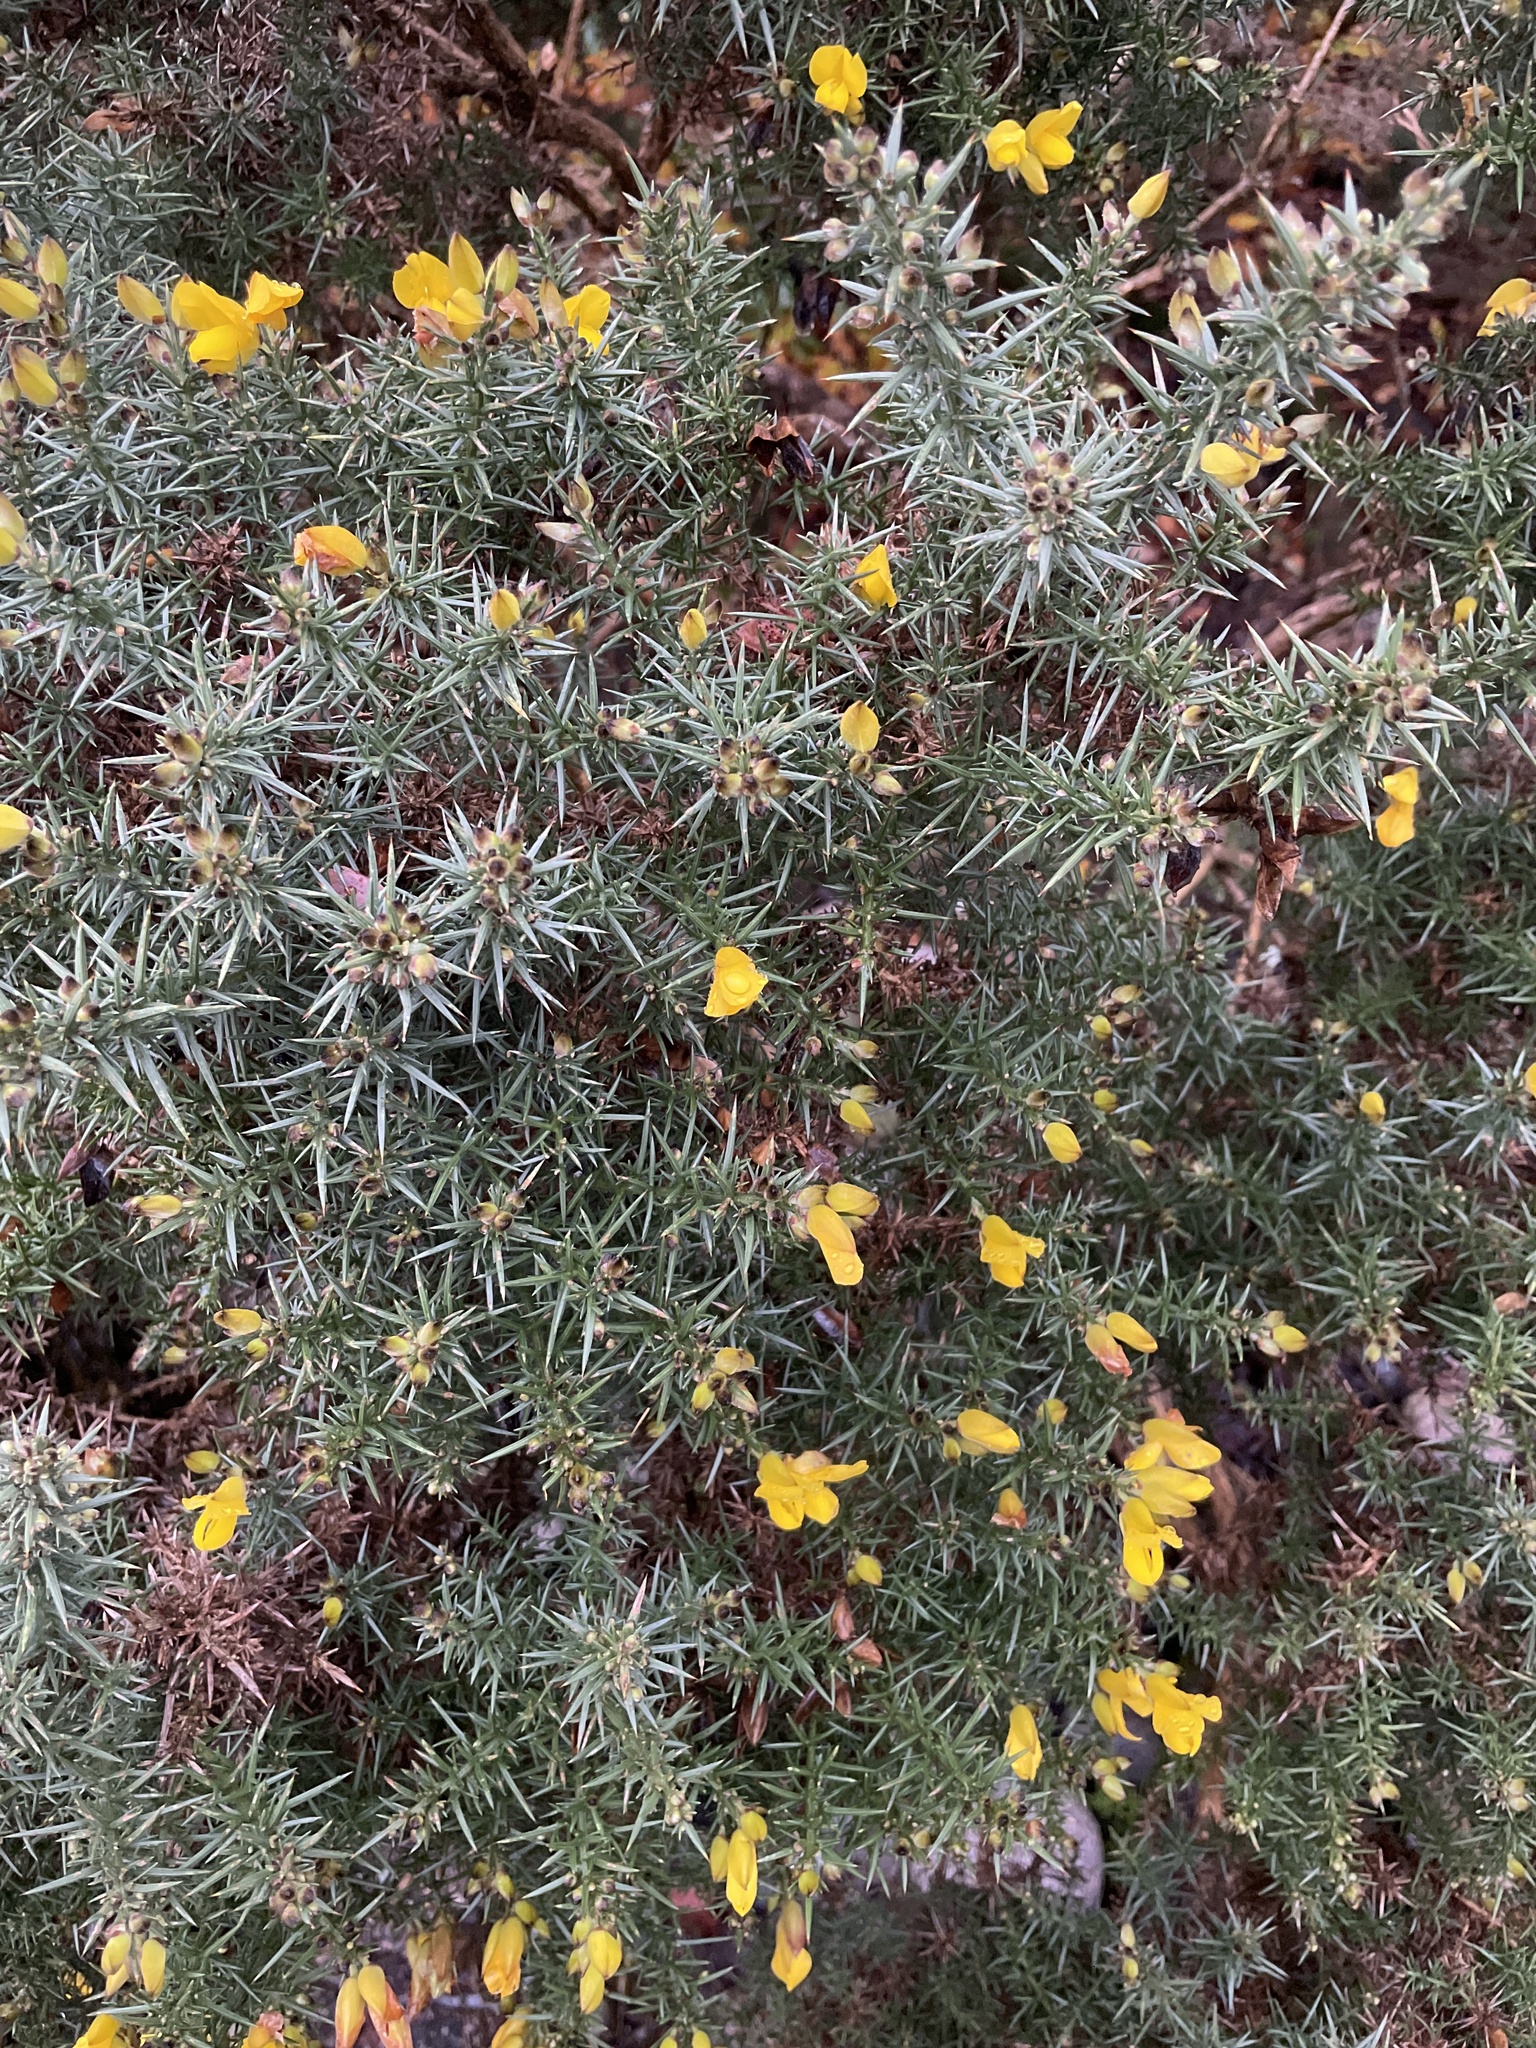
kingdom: Plantae
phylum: Tracheophyta
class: Magnoliopsida
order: Fabales
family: Fabaceae
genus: Ulex
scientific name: Ulex europaeus
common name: Common gorse
